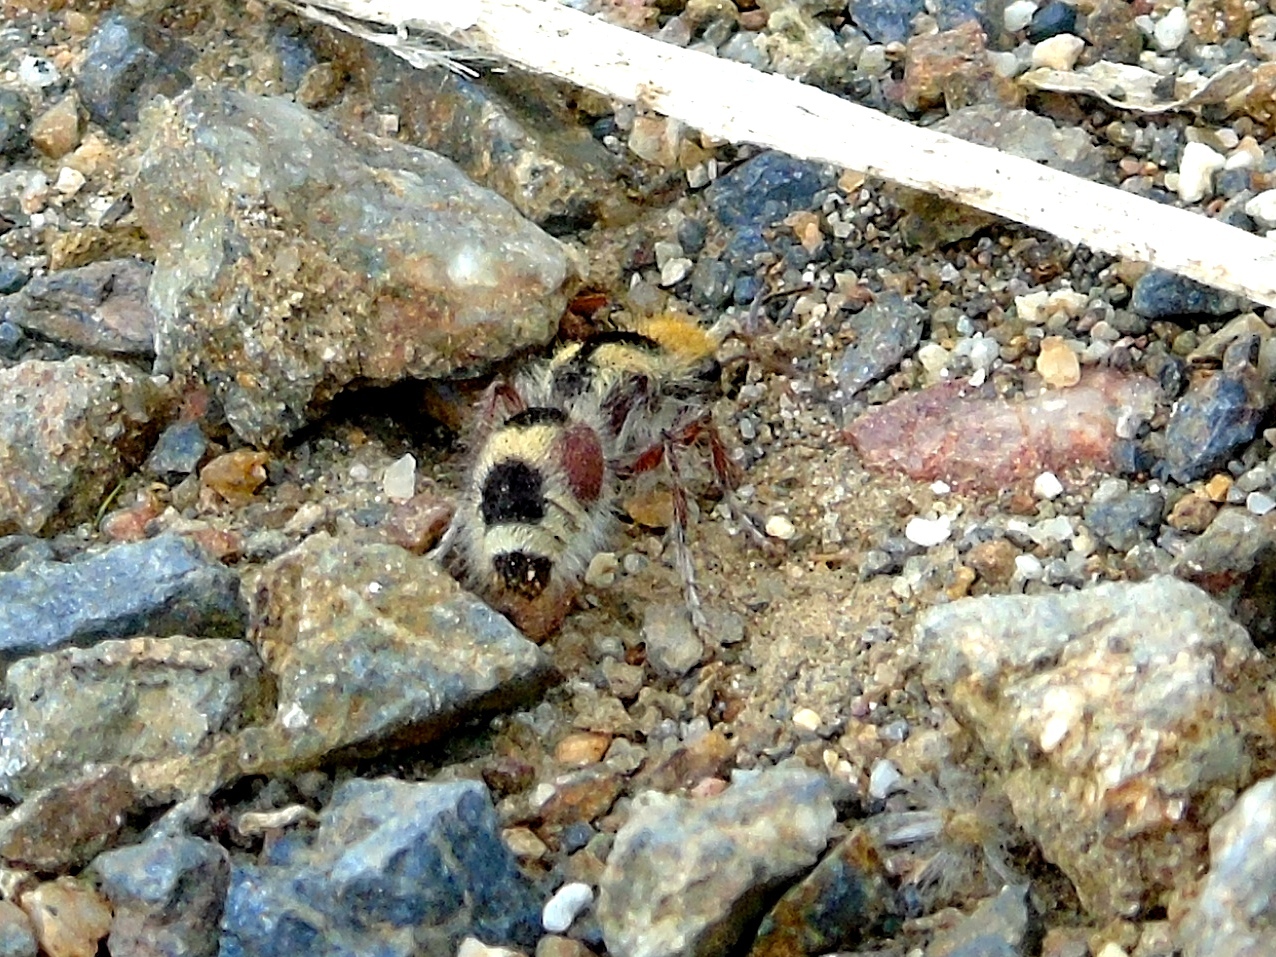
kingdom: Animalia
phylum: Arthropoda
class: Insecta
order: Hymenoptera
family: Mutillidae
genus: Dasymutilla
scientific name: Dasymutilla
